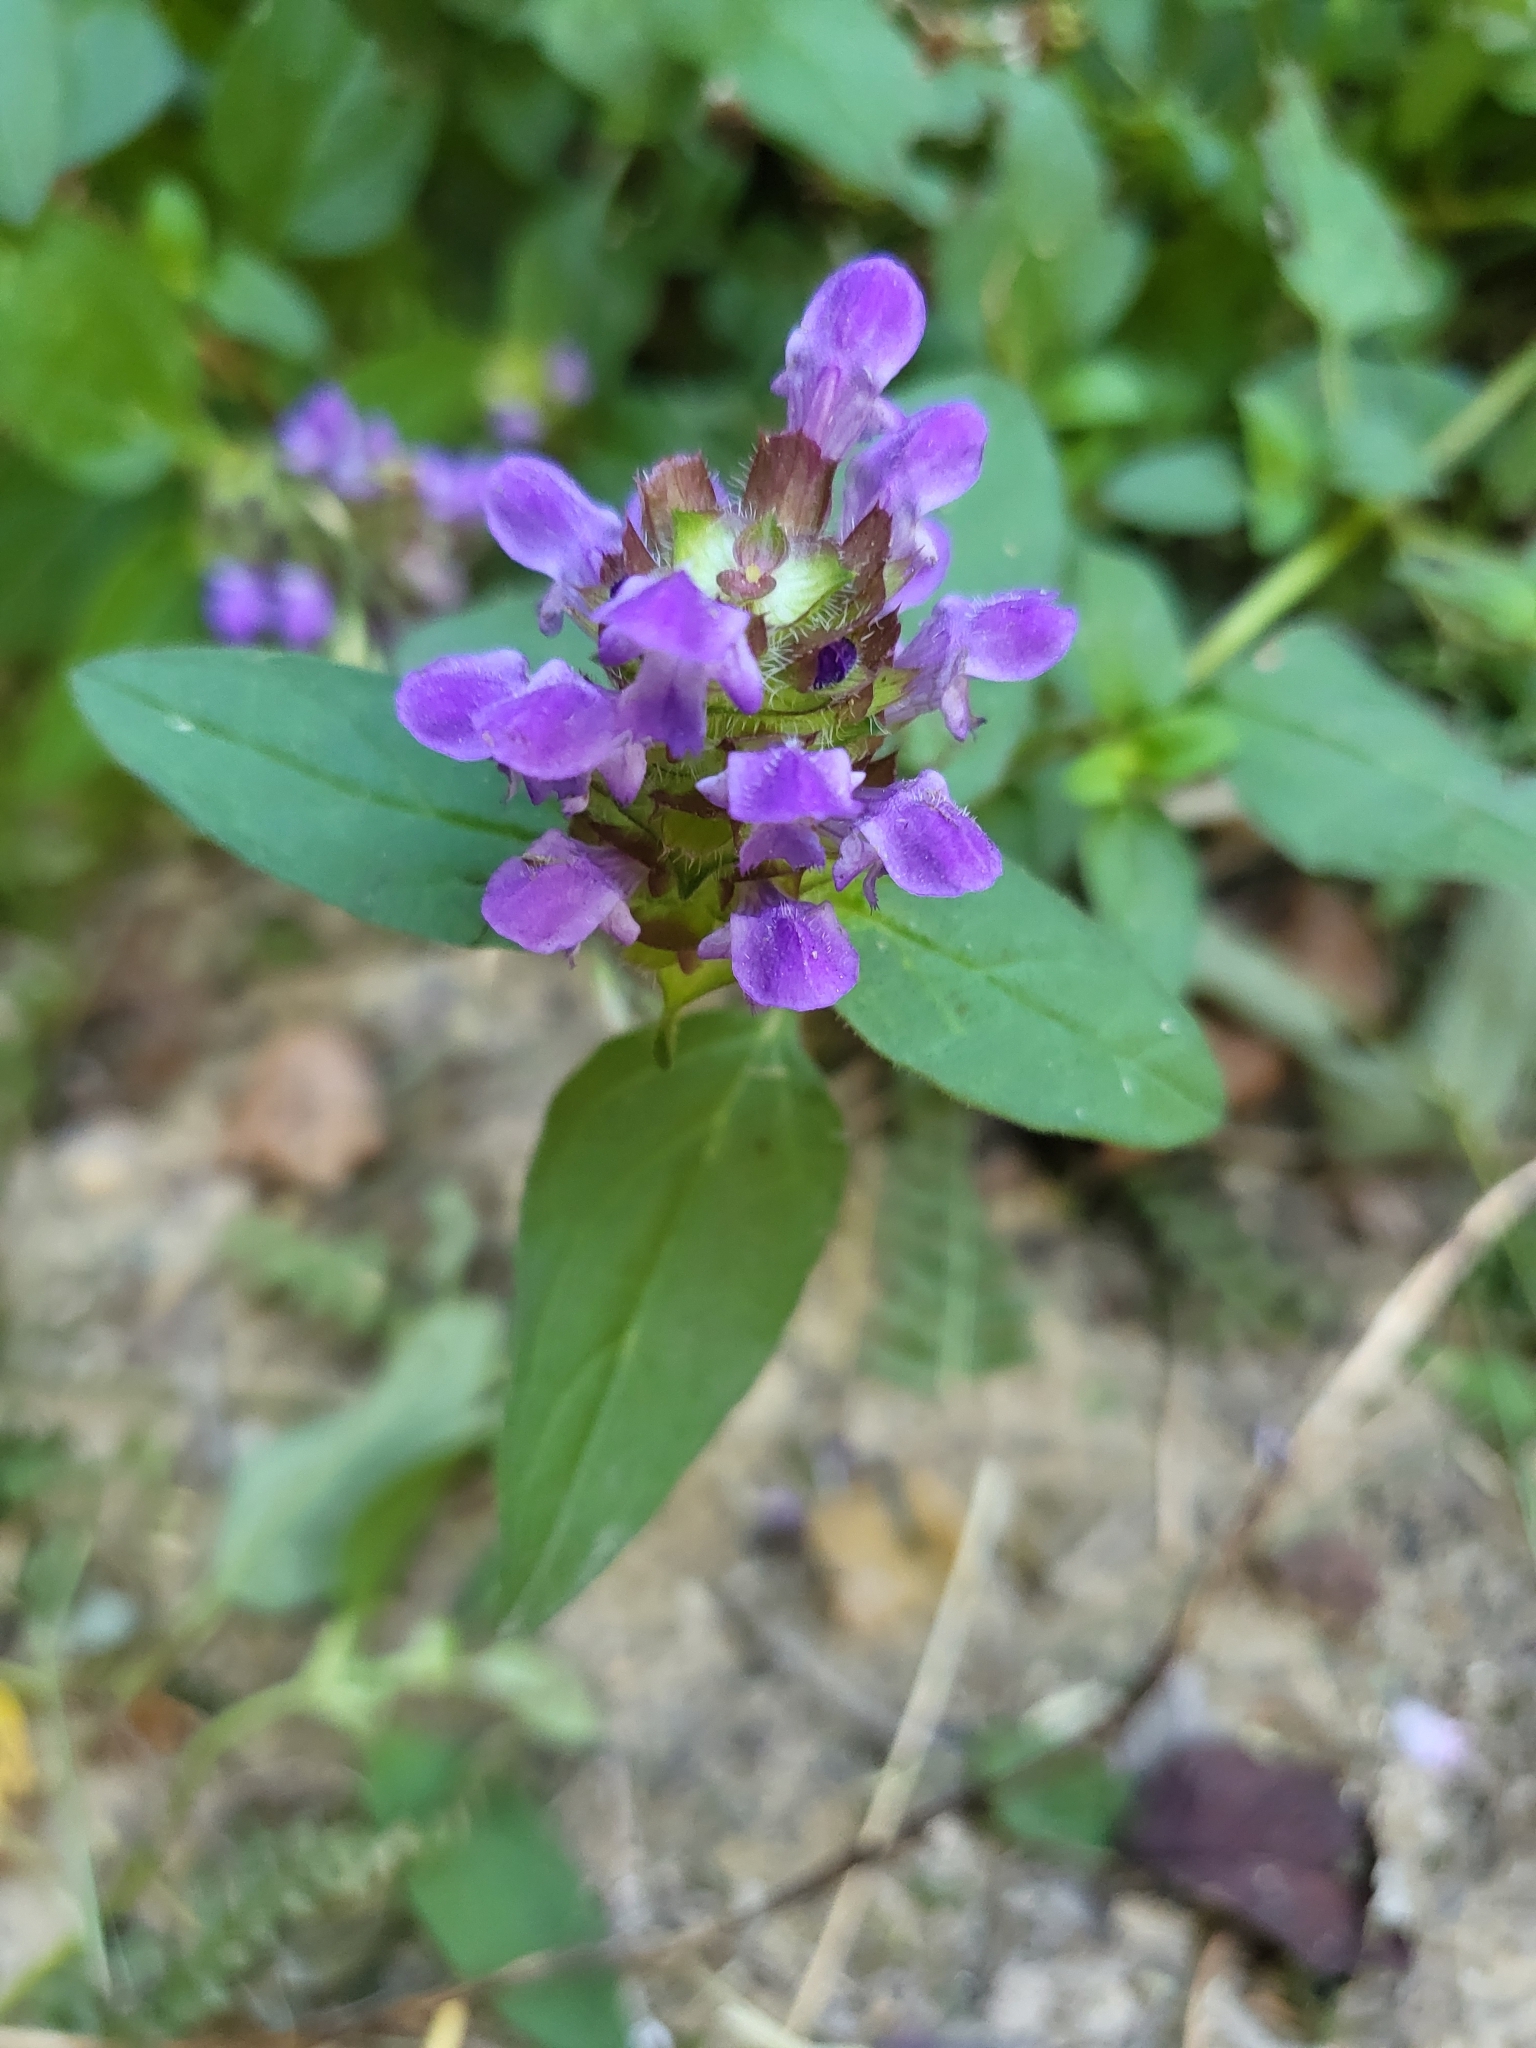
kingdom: Plantae
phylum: Tracheophyta
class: Magnoliopsida
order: Lamiales
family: Lamiaceae
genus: Prunella
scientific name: Prunella vulgaris
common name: Heal-all
